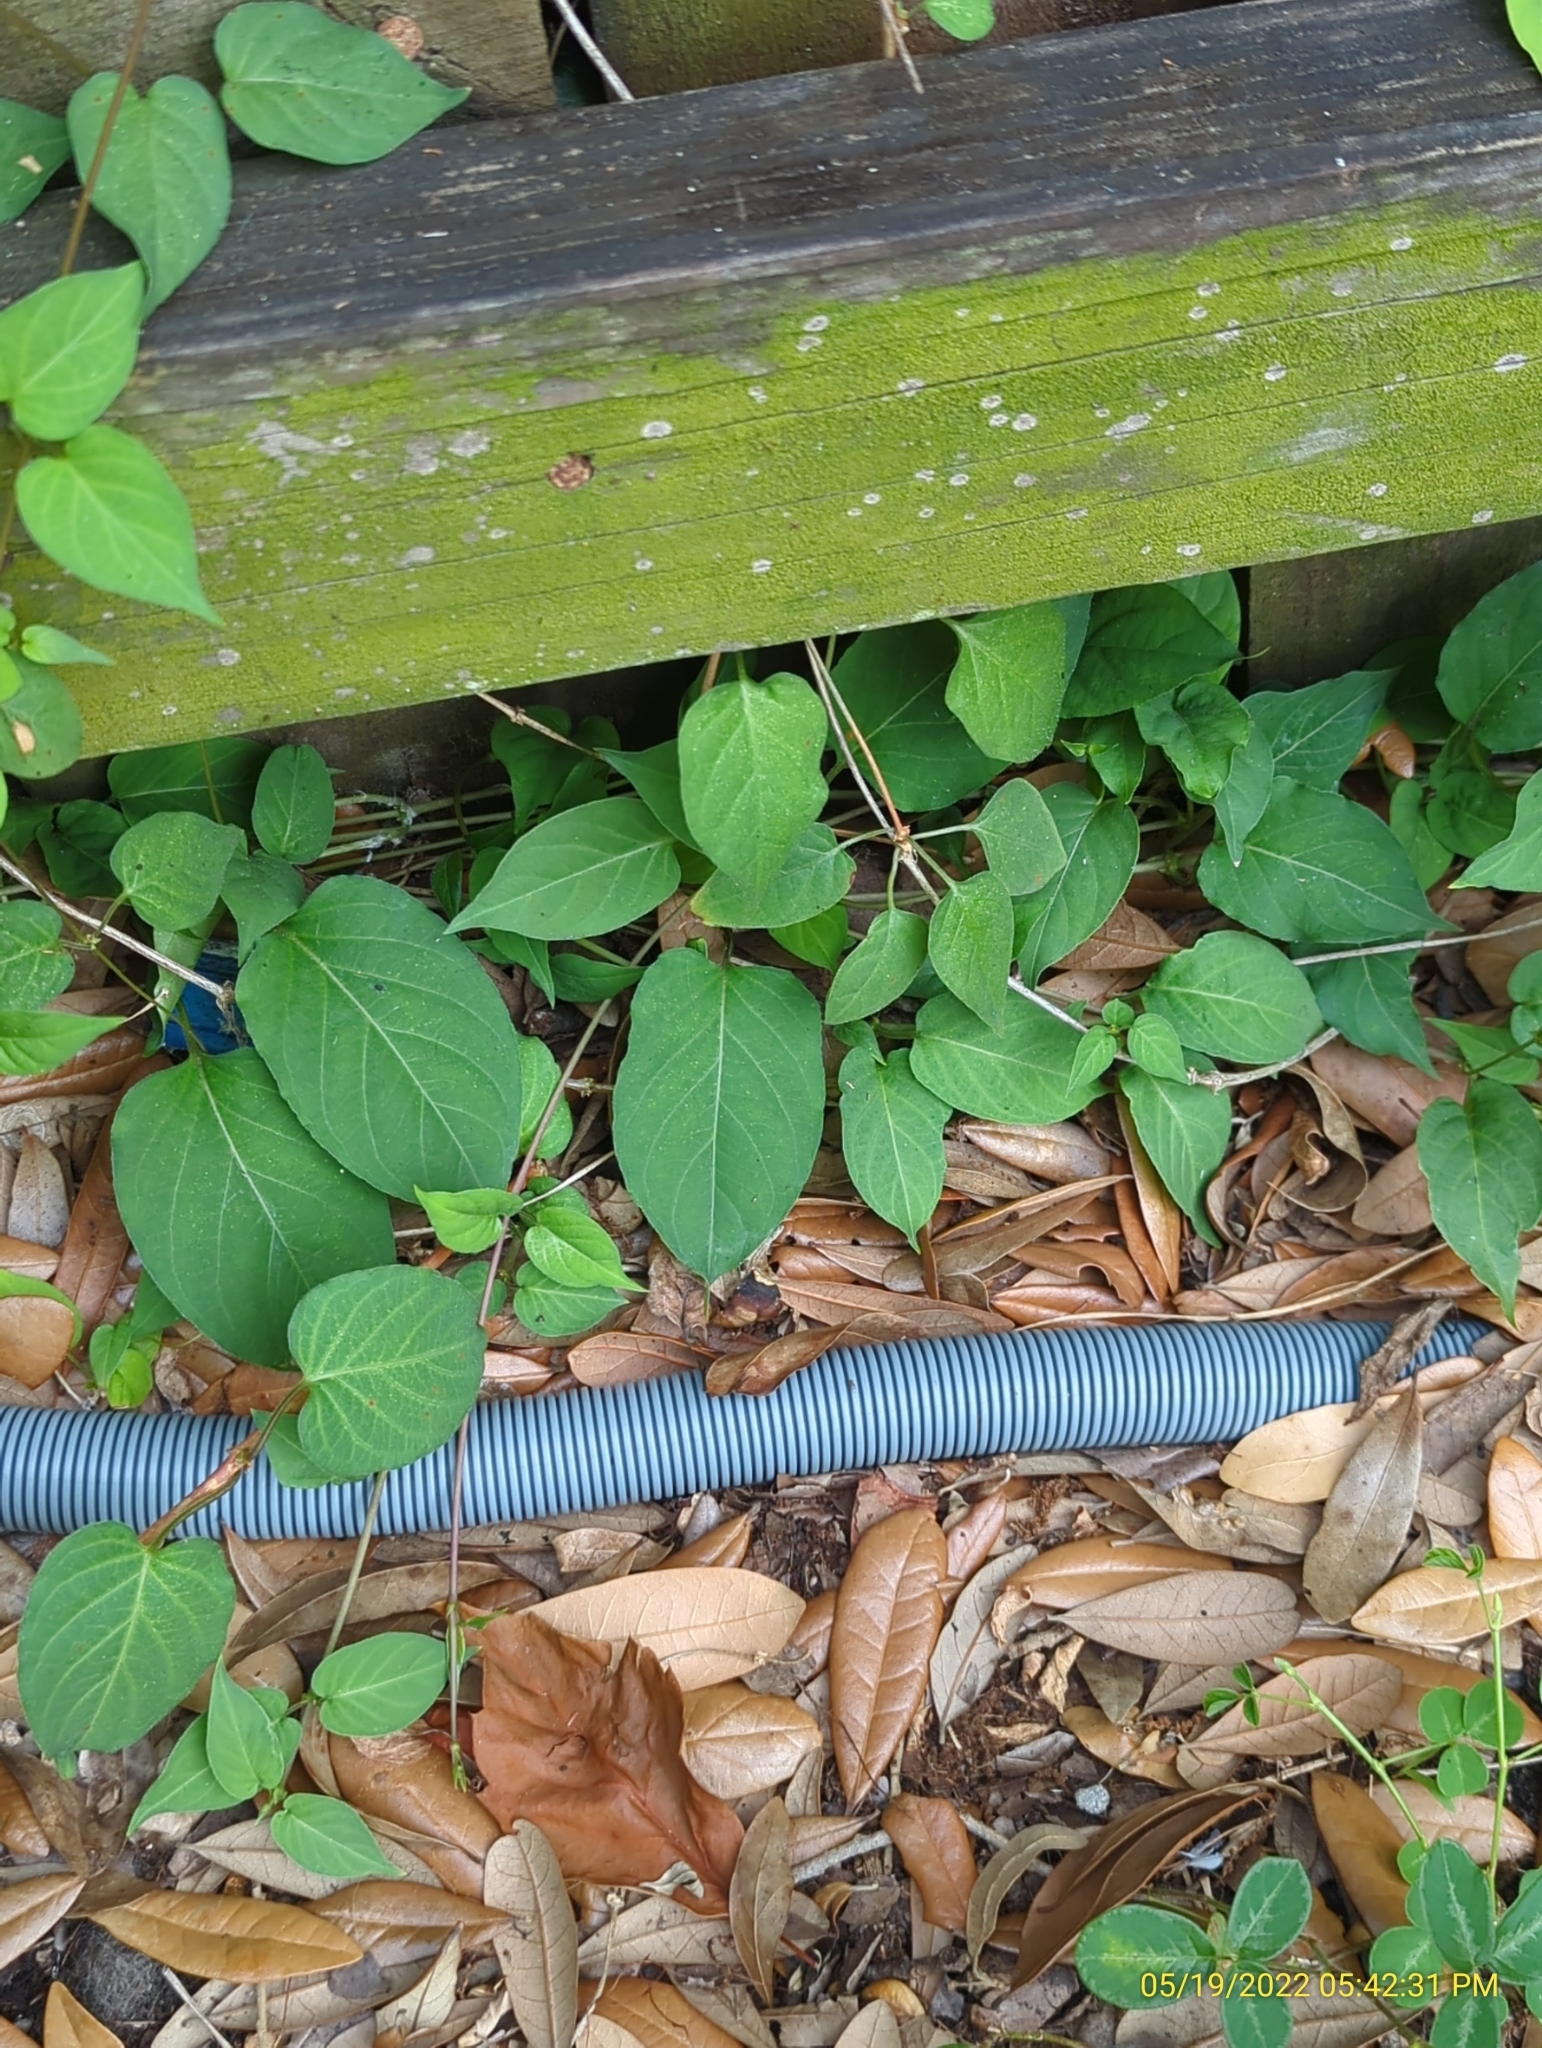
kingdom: Plantae
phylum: Tracheophyta
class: Magnoliopsida
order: Gentianales
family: Rubiaceae
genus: Paederia
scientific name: Paederia foetida
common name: Stinkvine
